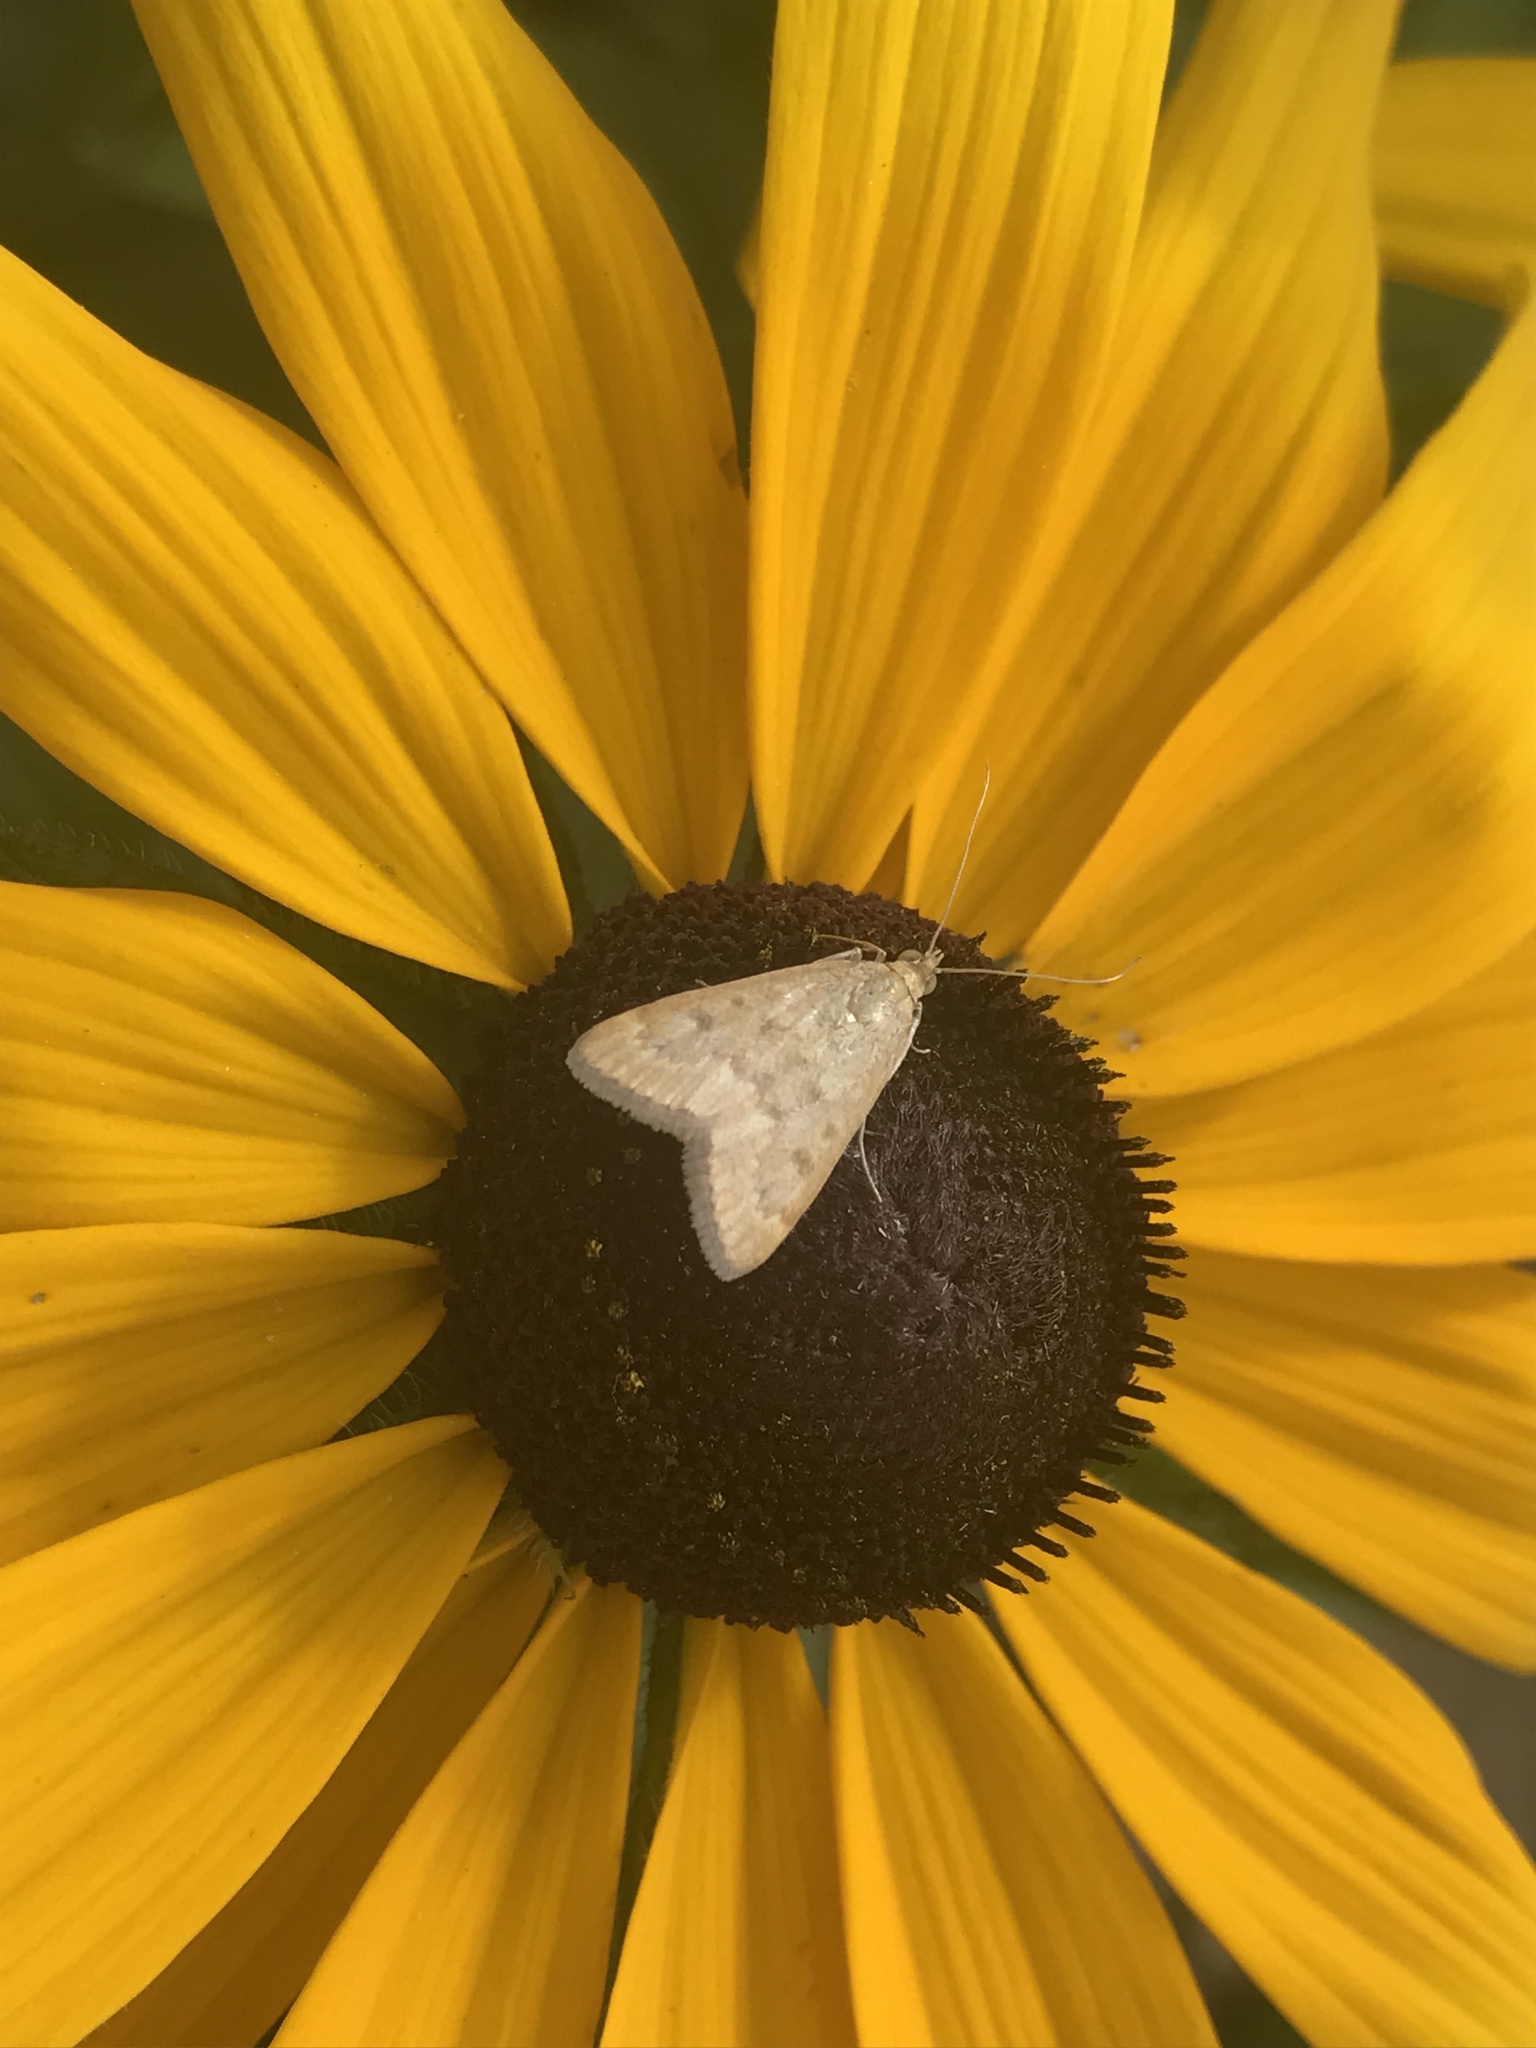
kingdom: Animalia
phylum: Arthropoda
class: Insecta
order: Lepidoptera
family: Crambidae
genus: Achyra
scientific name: Achyra rantalis
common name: Garden webworm
